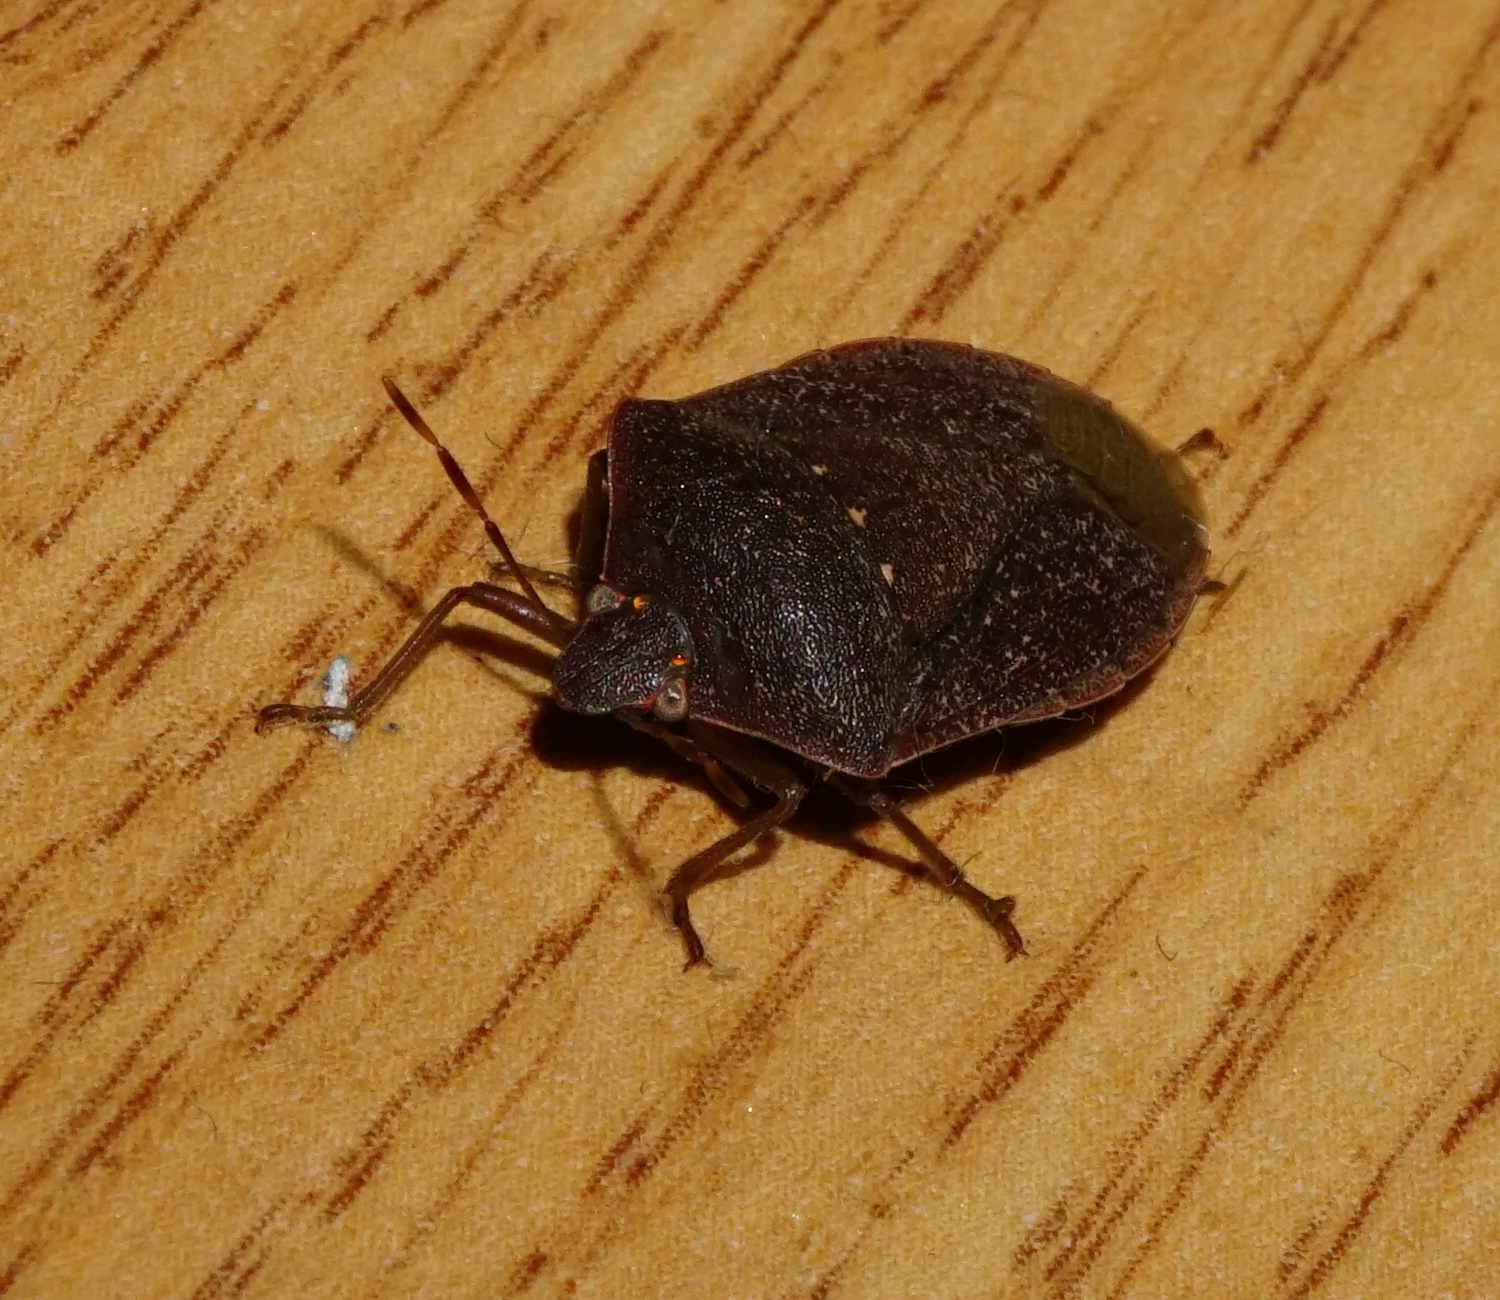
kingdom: Animalia
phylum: Arthropoda
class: Insecta
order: Hemiptera
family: Pentatomidae
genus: Nezara
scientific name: Nezara viridula
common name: Southern green stink bug
